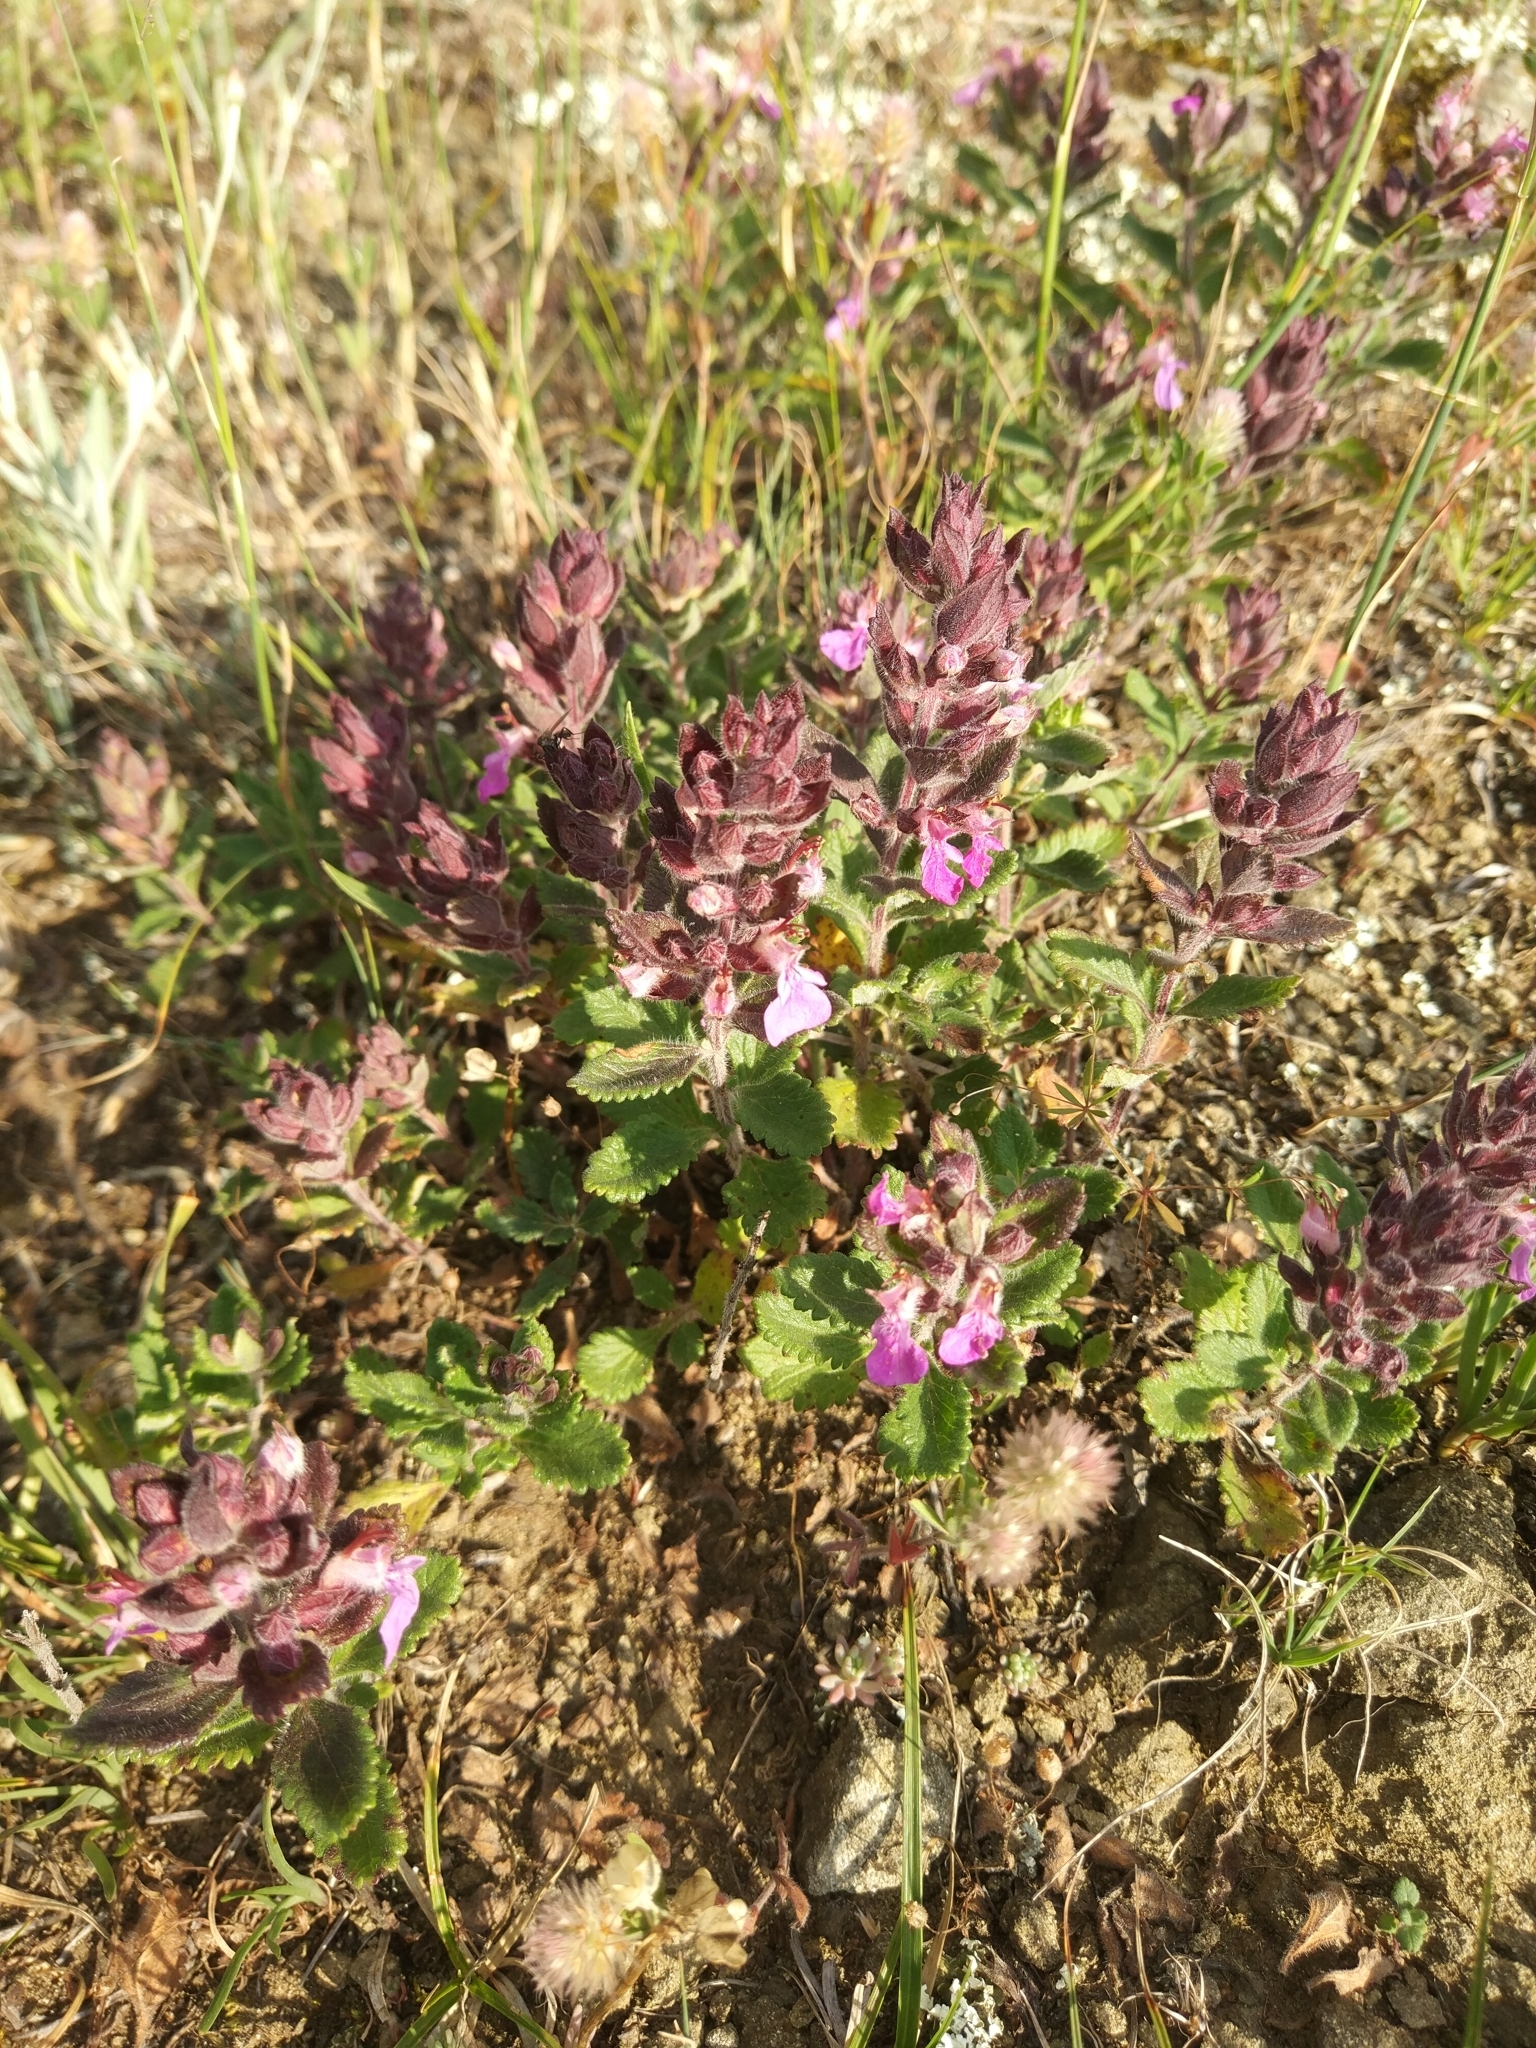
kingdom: Plantae
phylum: Tracheophyta
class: Magnoliopsida
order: Lamiales
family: Lamiaceae
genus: Teucrium
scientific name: Teucrium chamaedrys
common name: Wall germander
